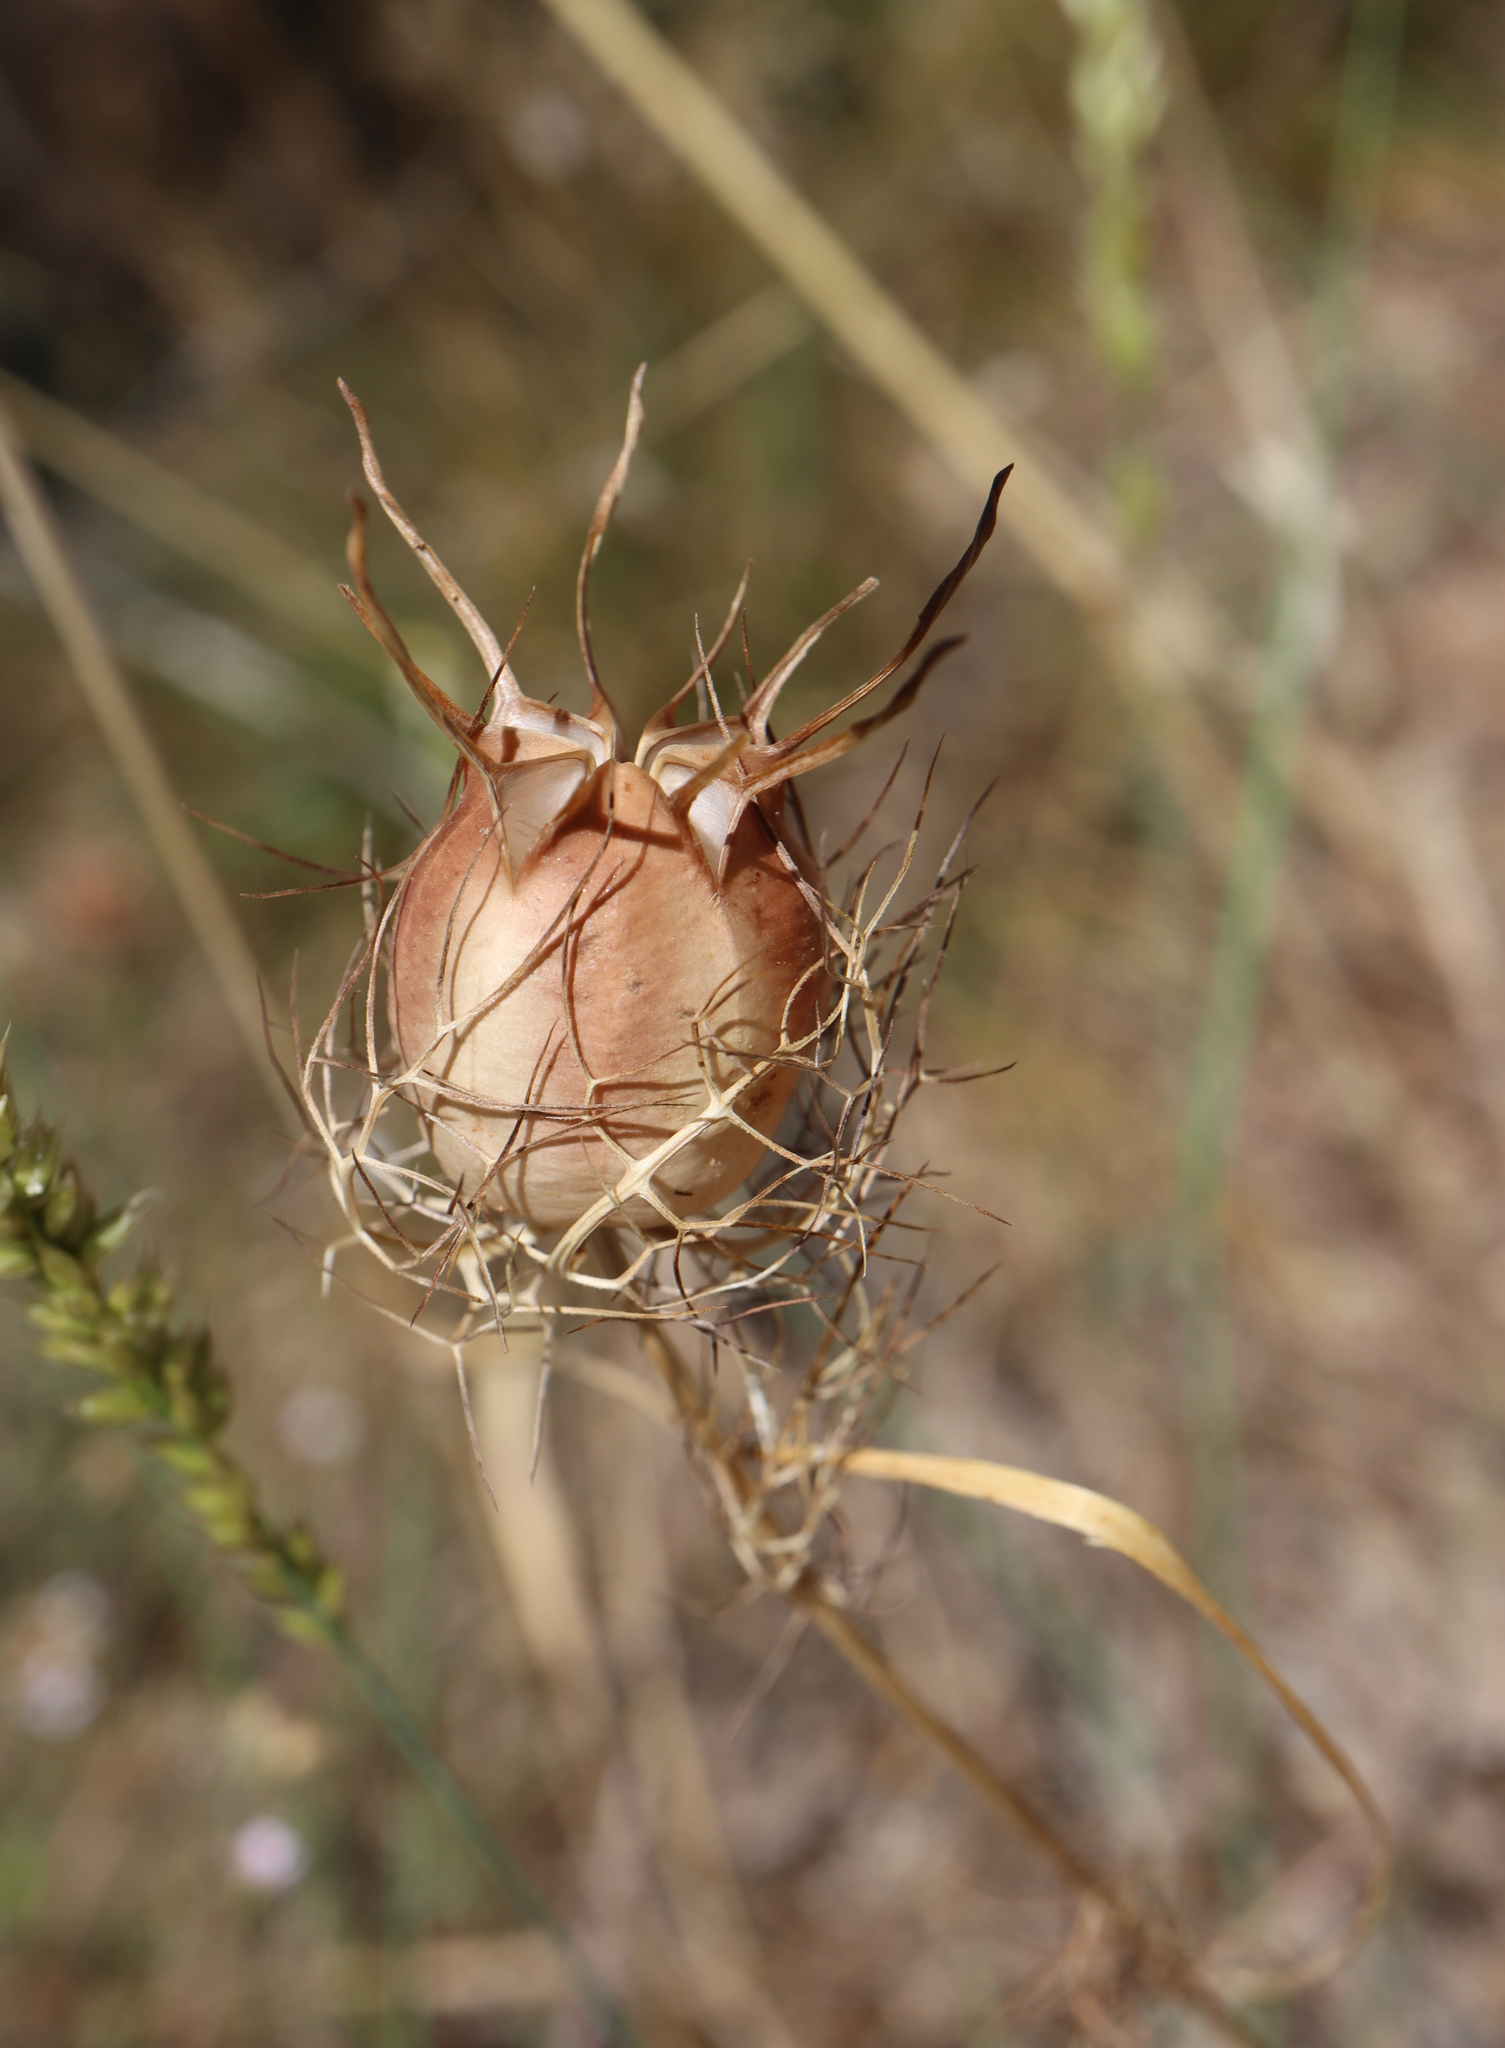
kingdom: Plantae
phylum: Tracheophyta
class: Magnoliopsida
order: Ranunculales
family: Ranunculaceae
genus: Nigella
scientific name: Nigella damascena
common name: Love-in-a-mist
